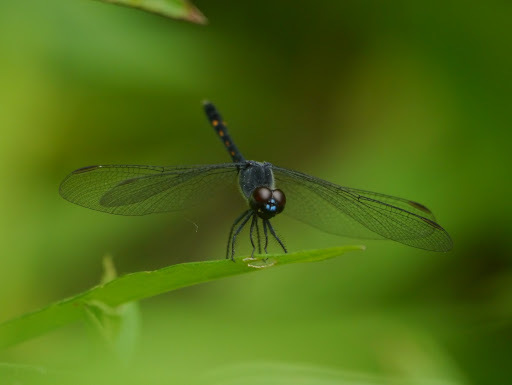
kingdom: Animalia
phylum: Arthropoda
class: Insecta
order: Odonata
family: Libellulidae
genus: Erythrodiplax
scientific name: Erythrodiplax berenice
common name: Seaside dragonlet
